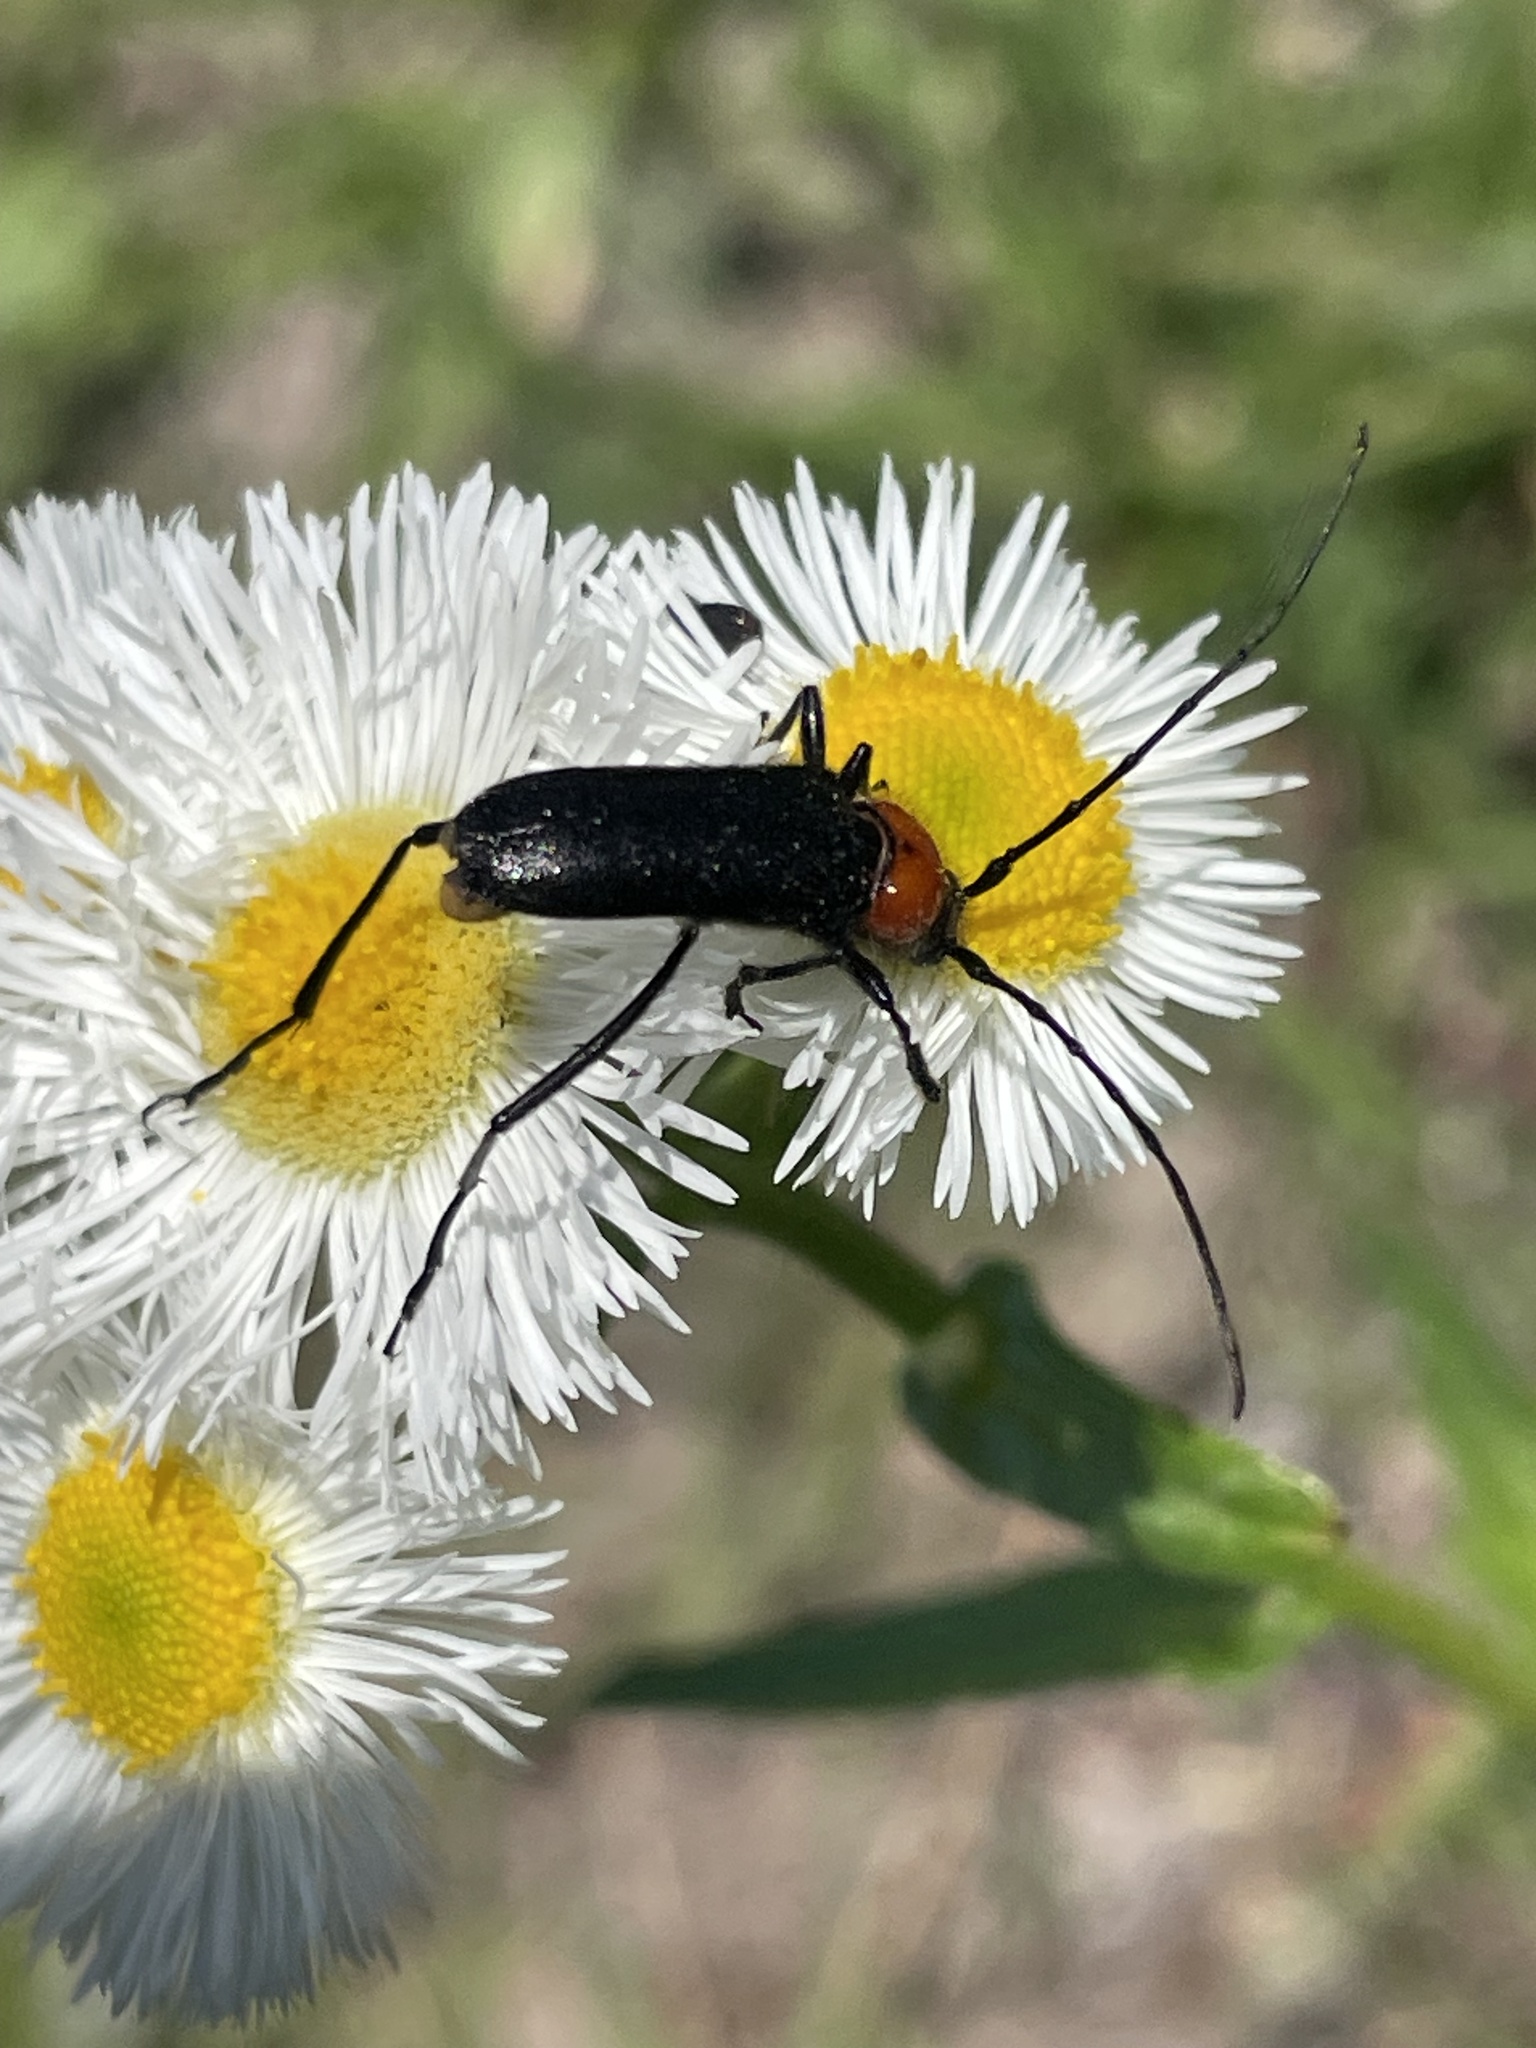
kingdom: Animalia
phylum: Arthropoda
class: Insecta
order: Coleoptera
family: Cerambycidae
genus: Batyle
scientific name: Batyle ignicollis
